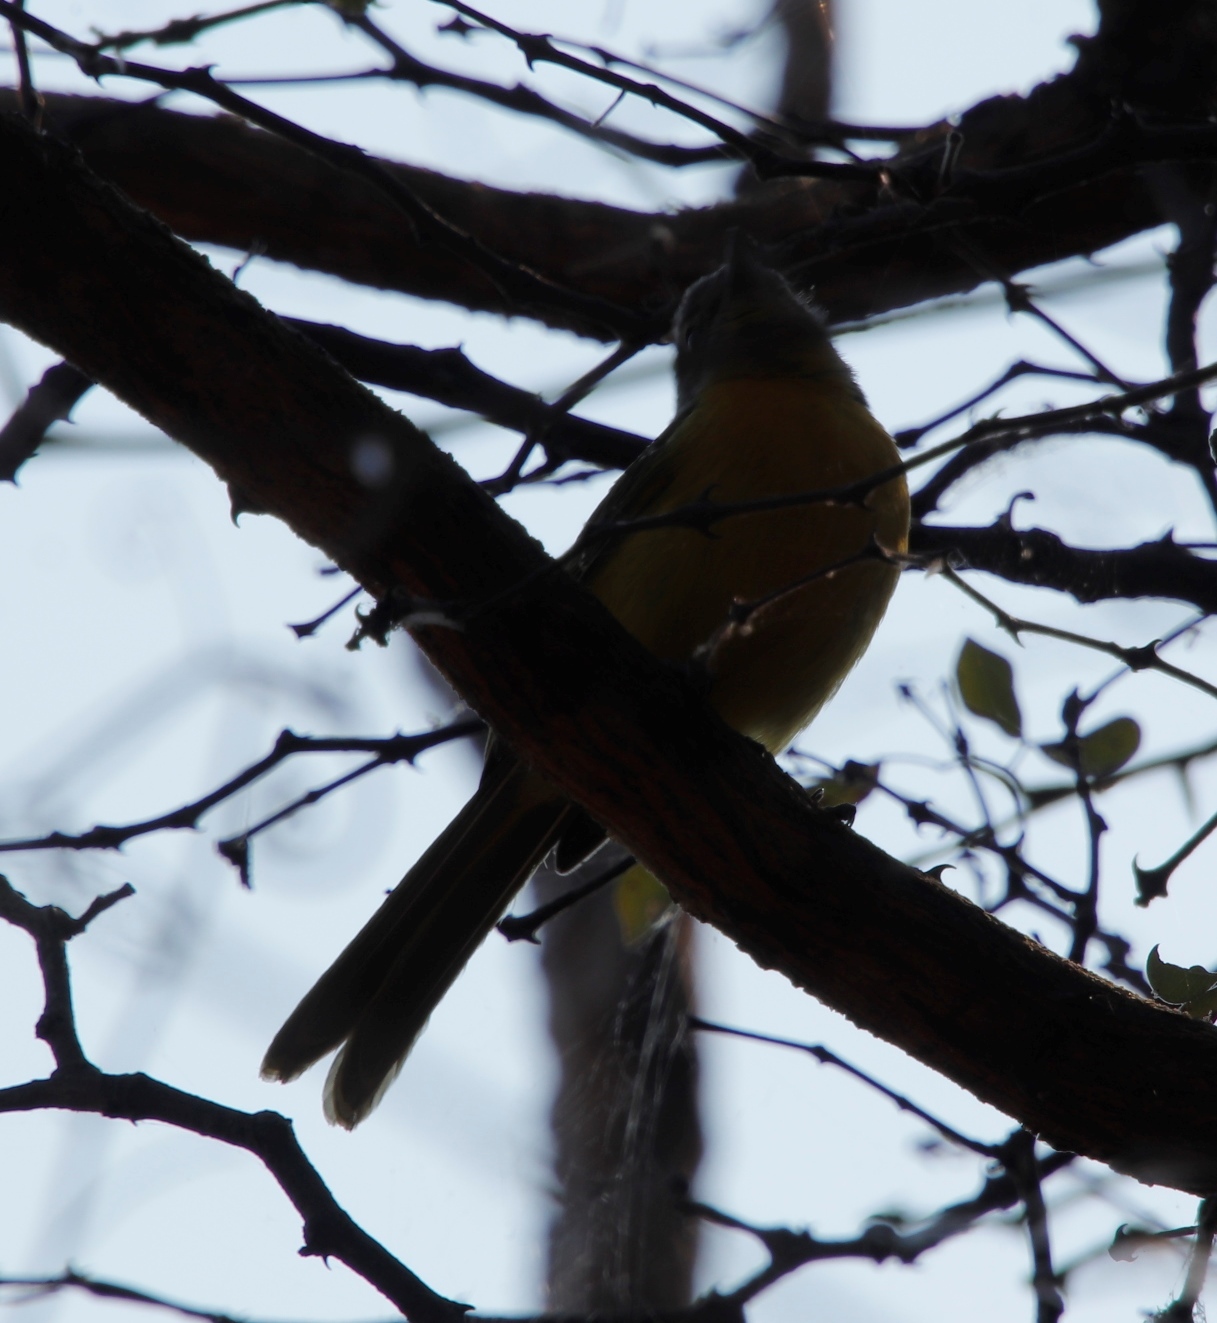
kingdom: Animalia
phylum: Chordata
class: Aves
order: Passeriformes
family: Malaconotidae
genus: Chlorophoneus
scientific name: Chlorophoneus sulfureopectus
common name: Orange-breasted bushshrike
